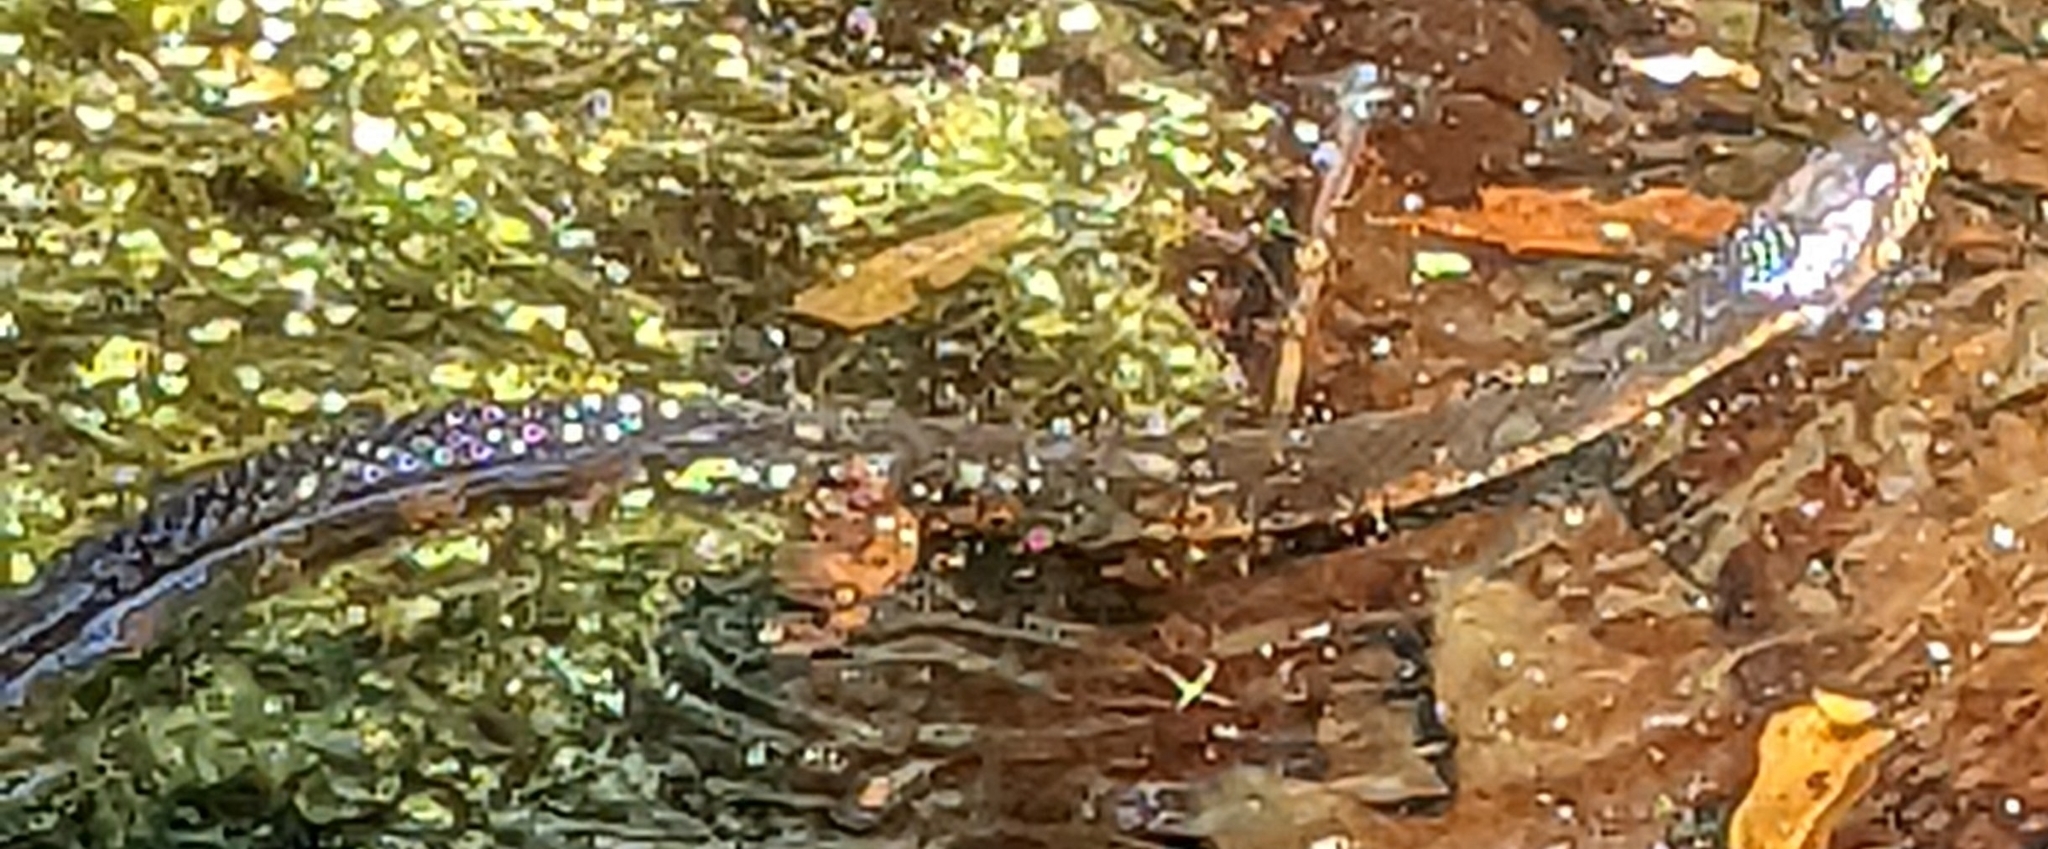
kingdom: Animalia
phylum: Chordata
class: Squamata
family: Colubridae
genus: Nerodia
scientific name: Nerodia fasciata
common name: Southern water snake
